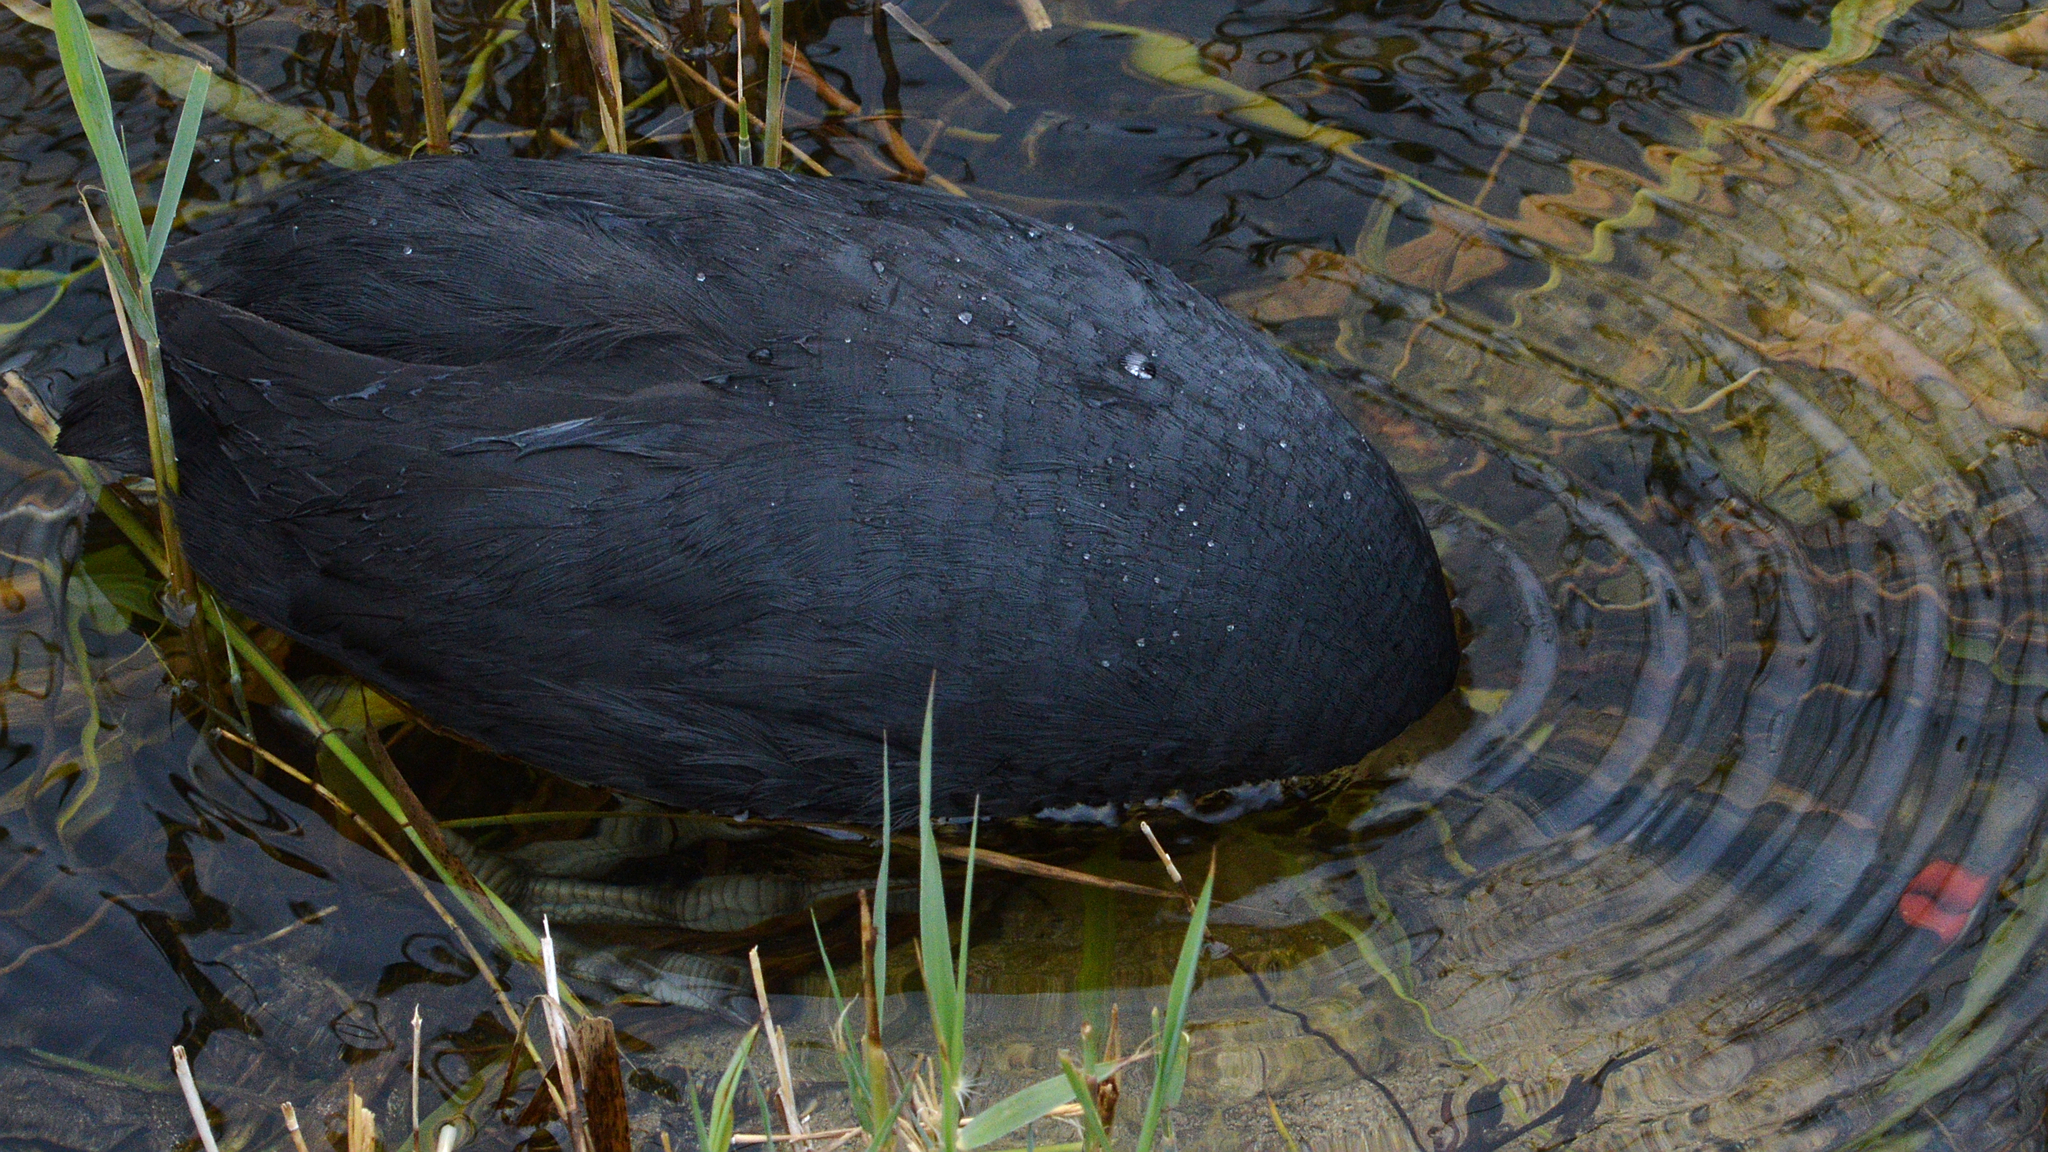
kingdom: Animalia
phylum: Chordata
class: Aves
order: Gruiformes
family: Rallidae
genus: Fulica
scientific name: Fulica cristata
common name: Red-knobbed coot
